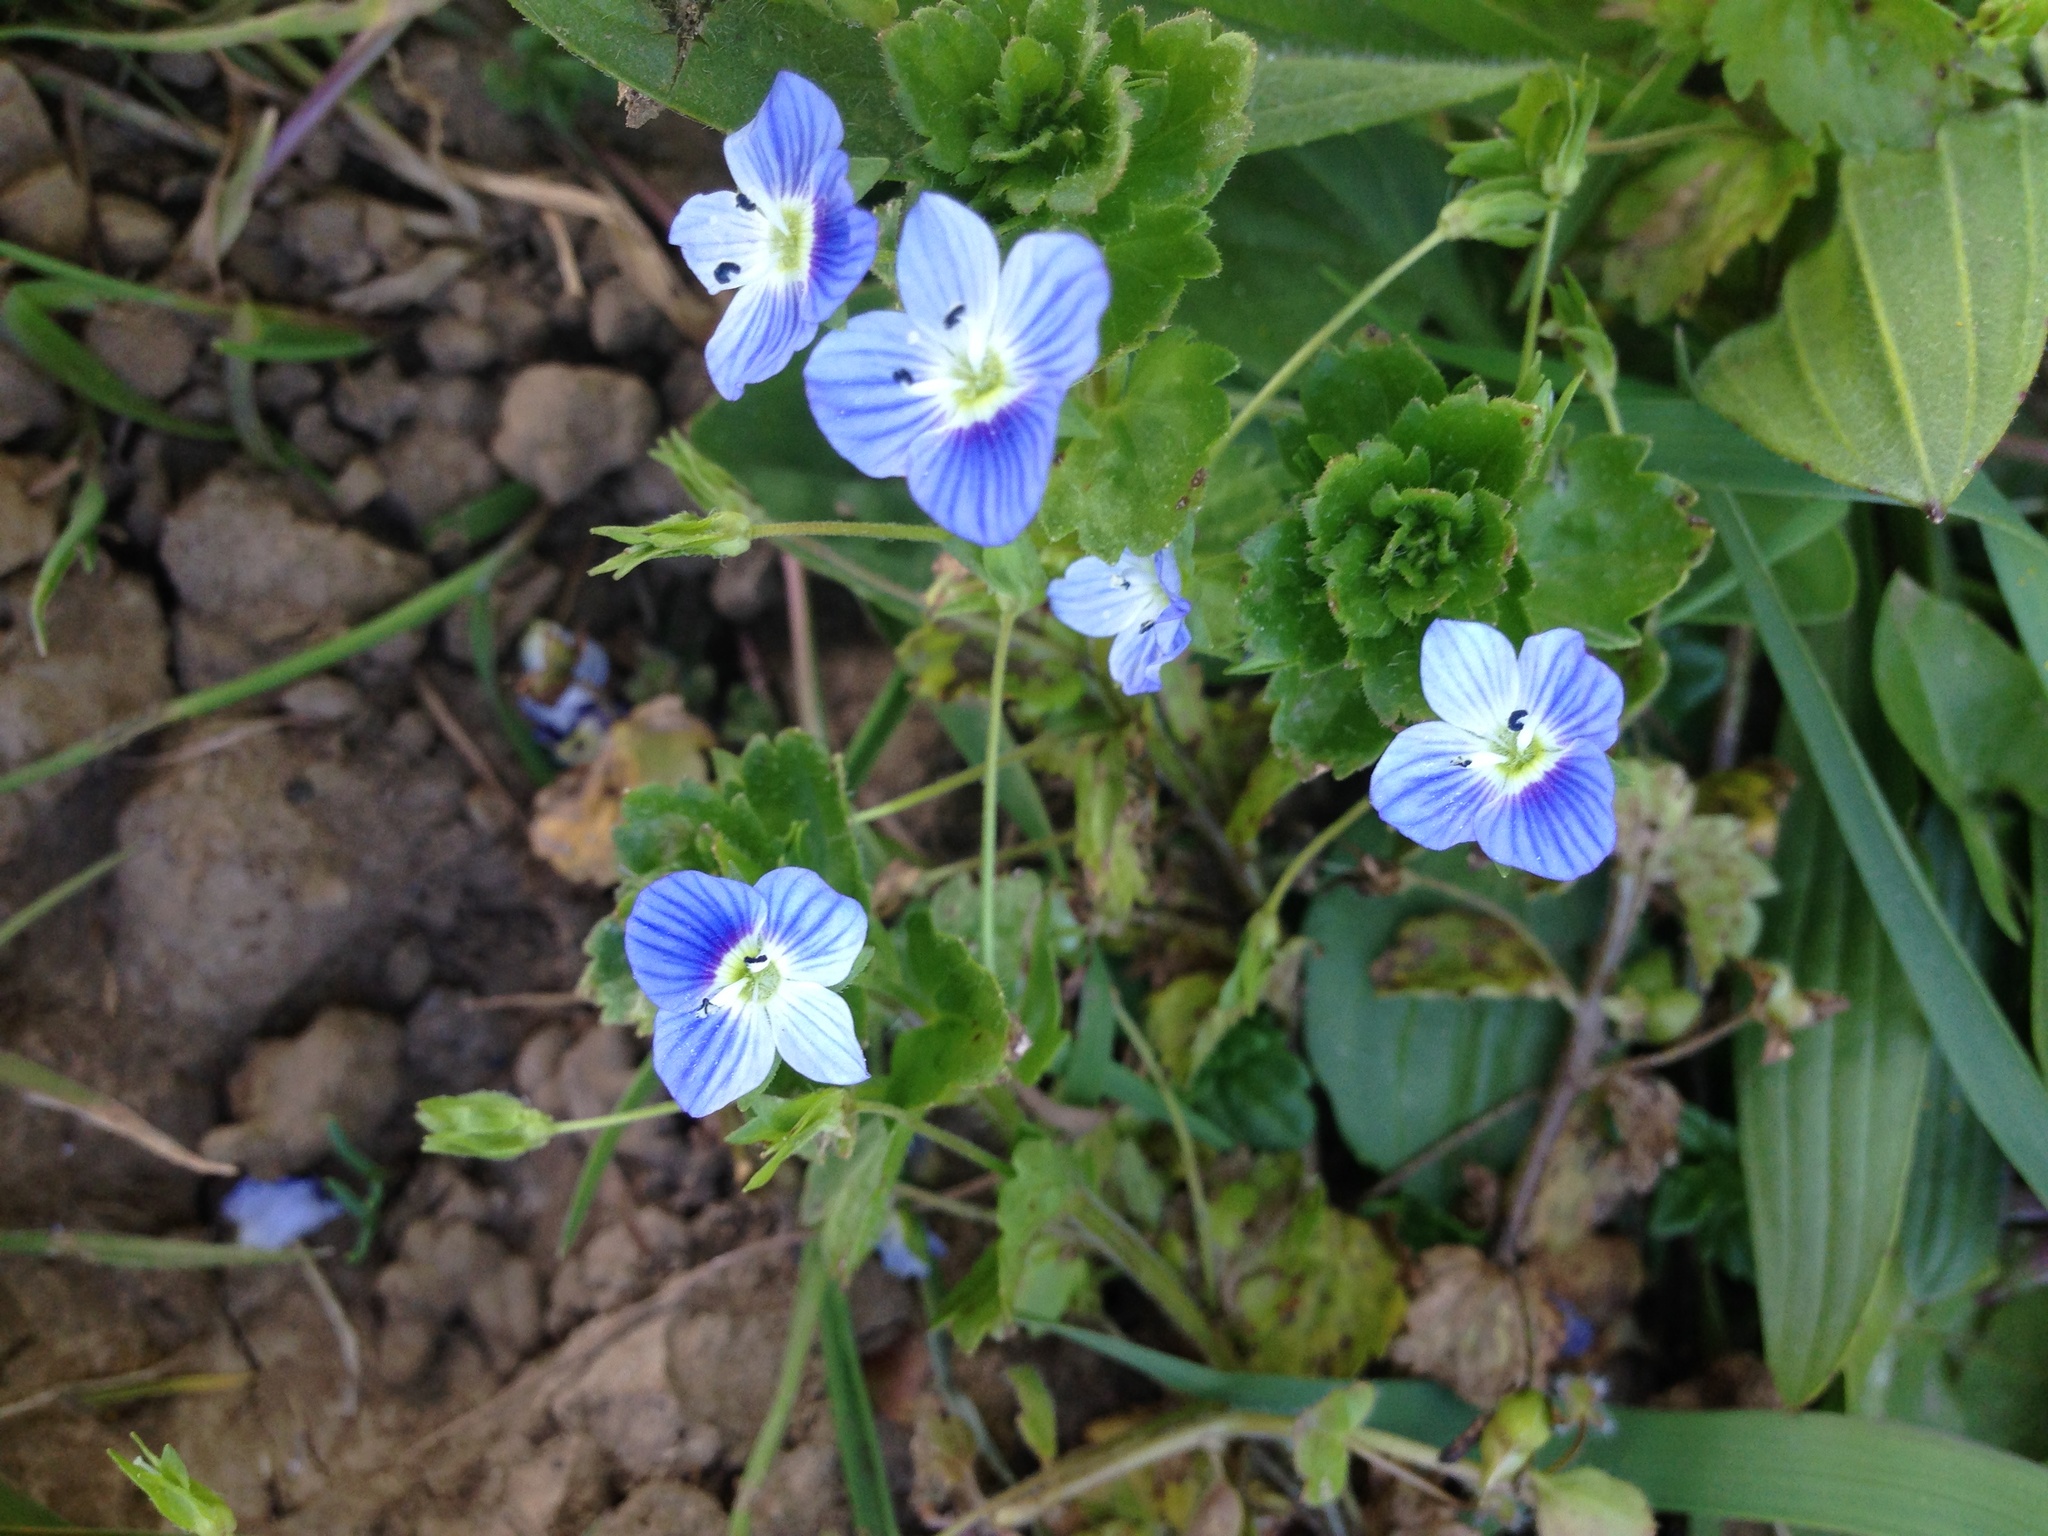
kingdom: Plantae
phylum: Tracheophyta
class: Magnoliopsida
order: Lamiales
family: Plantaginaceae
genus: Veronica
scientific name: Veronica persica
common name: Common field-speedwell
